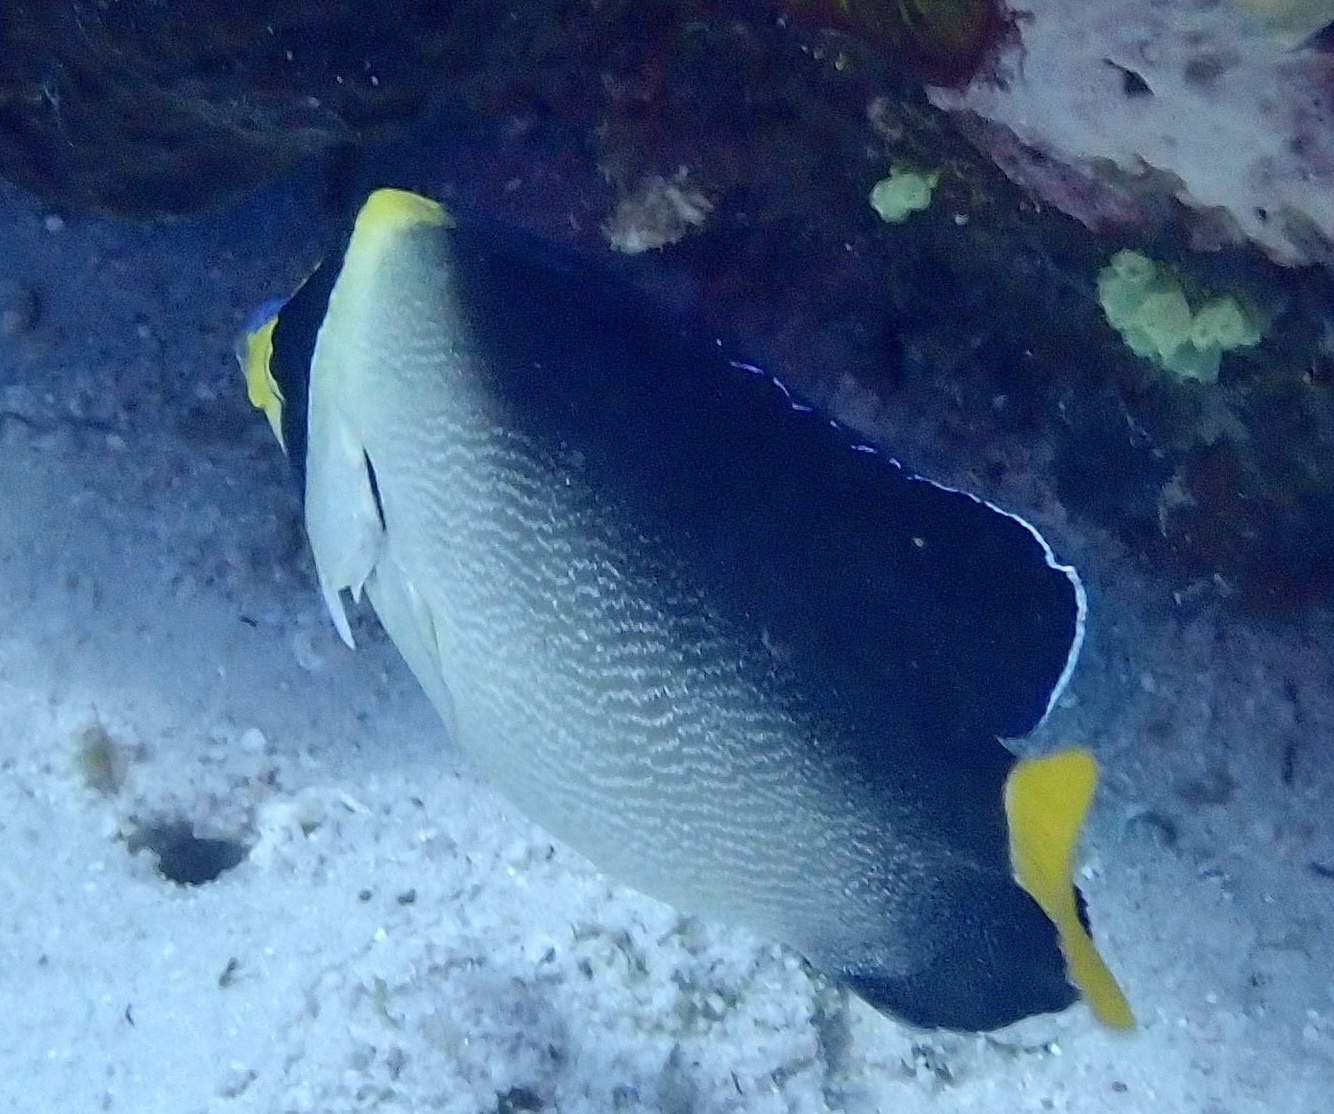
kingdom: Animalia
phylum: Chordata
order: Perciformes
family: Pomacanthidae
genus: Chaetodontoplus
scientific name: Chaetodontoplus mesoleucus
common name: Vermiculated angelfish
